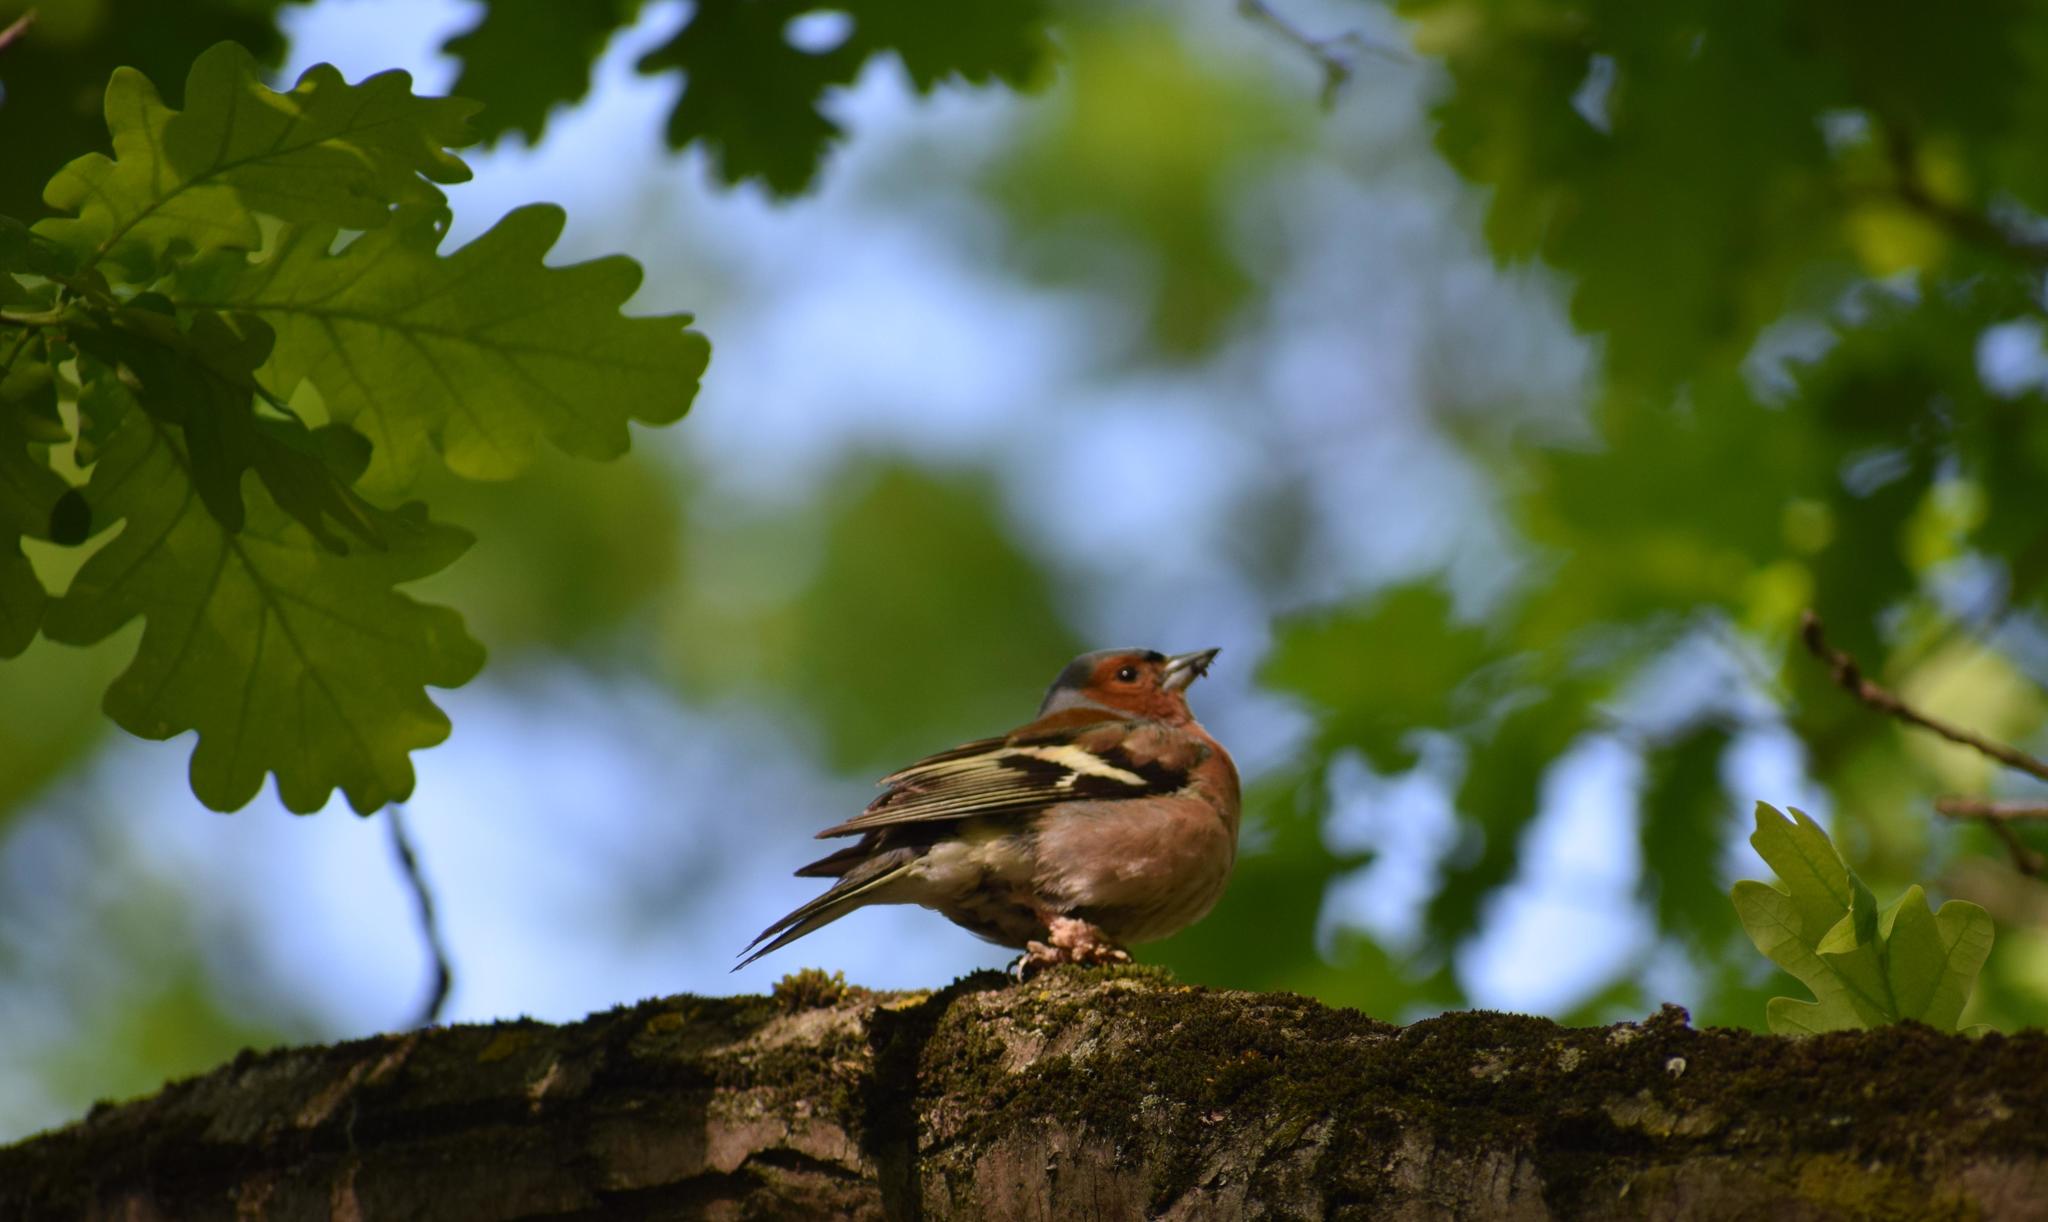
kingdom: Animalia
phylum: Chordata
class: Aves
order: Passeriformes
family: Fringillidae
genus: Fringilla
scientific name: Fringilla coelebs
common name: Common chaffinch
